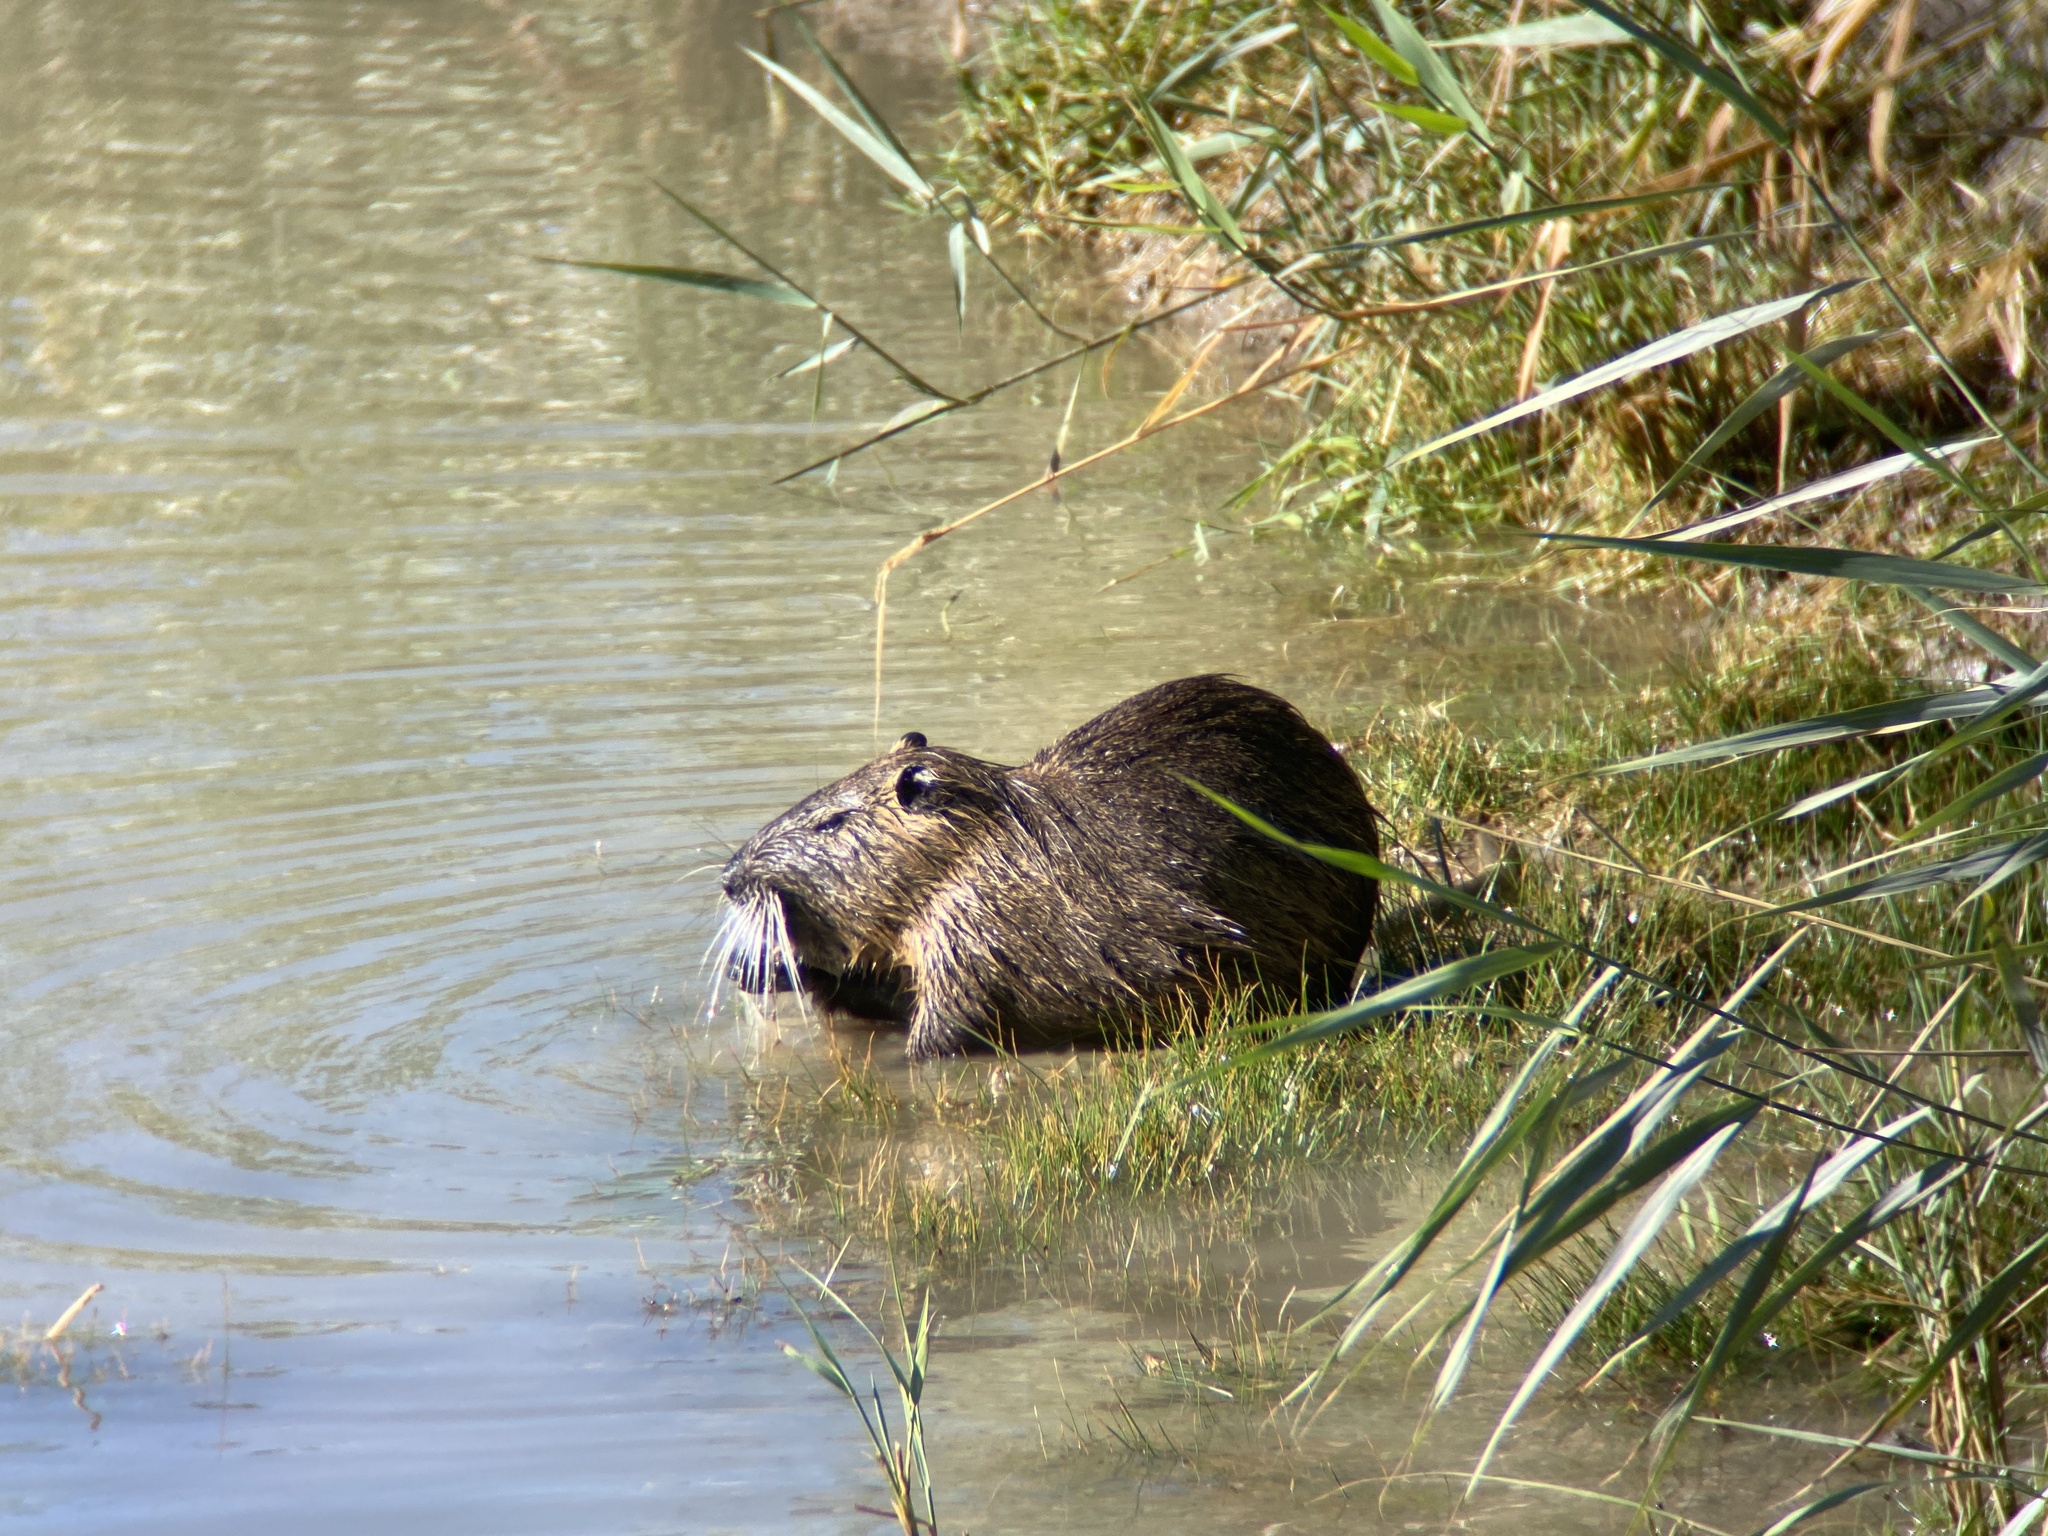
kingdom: Animalia
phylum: Chordata
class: Mammalia
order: Rodentia
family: Myocastoridae
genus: Myocastor
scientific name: Myocastor coypus
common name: Coypu
